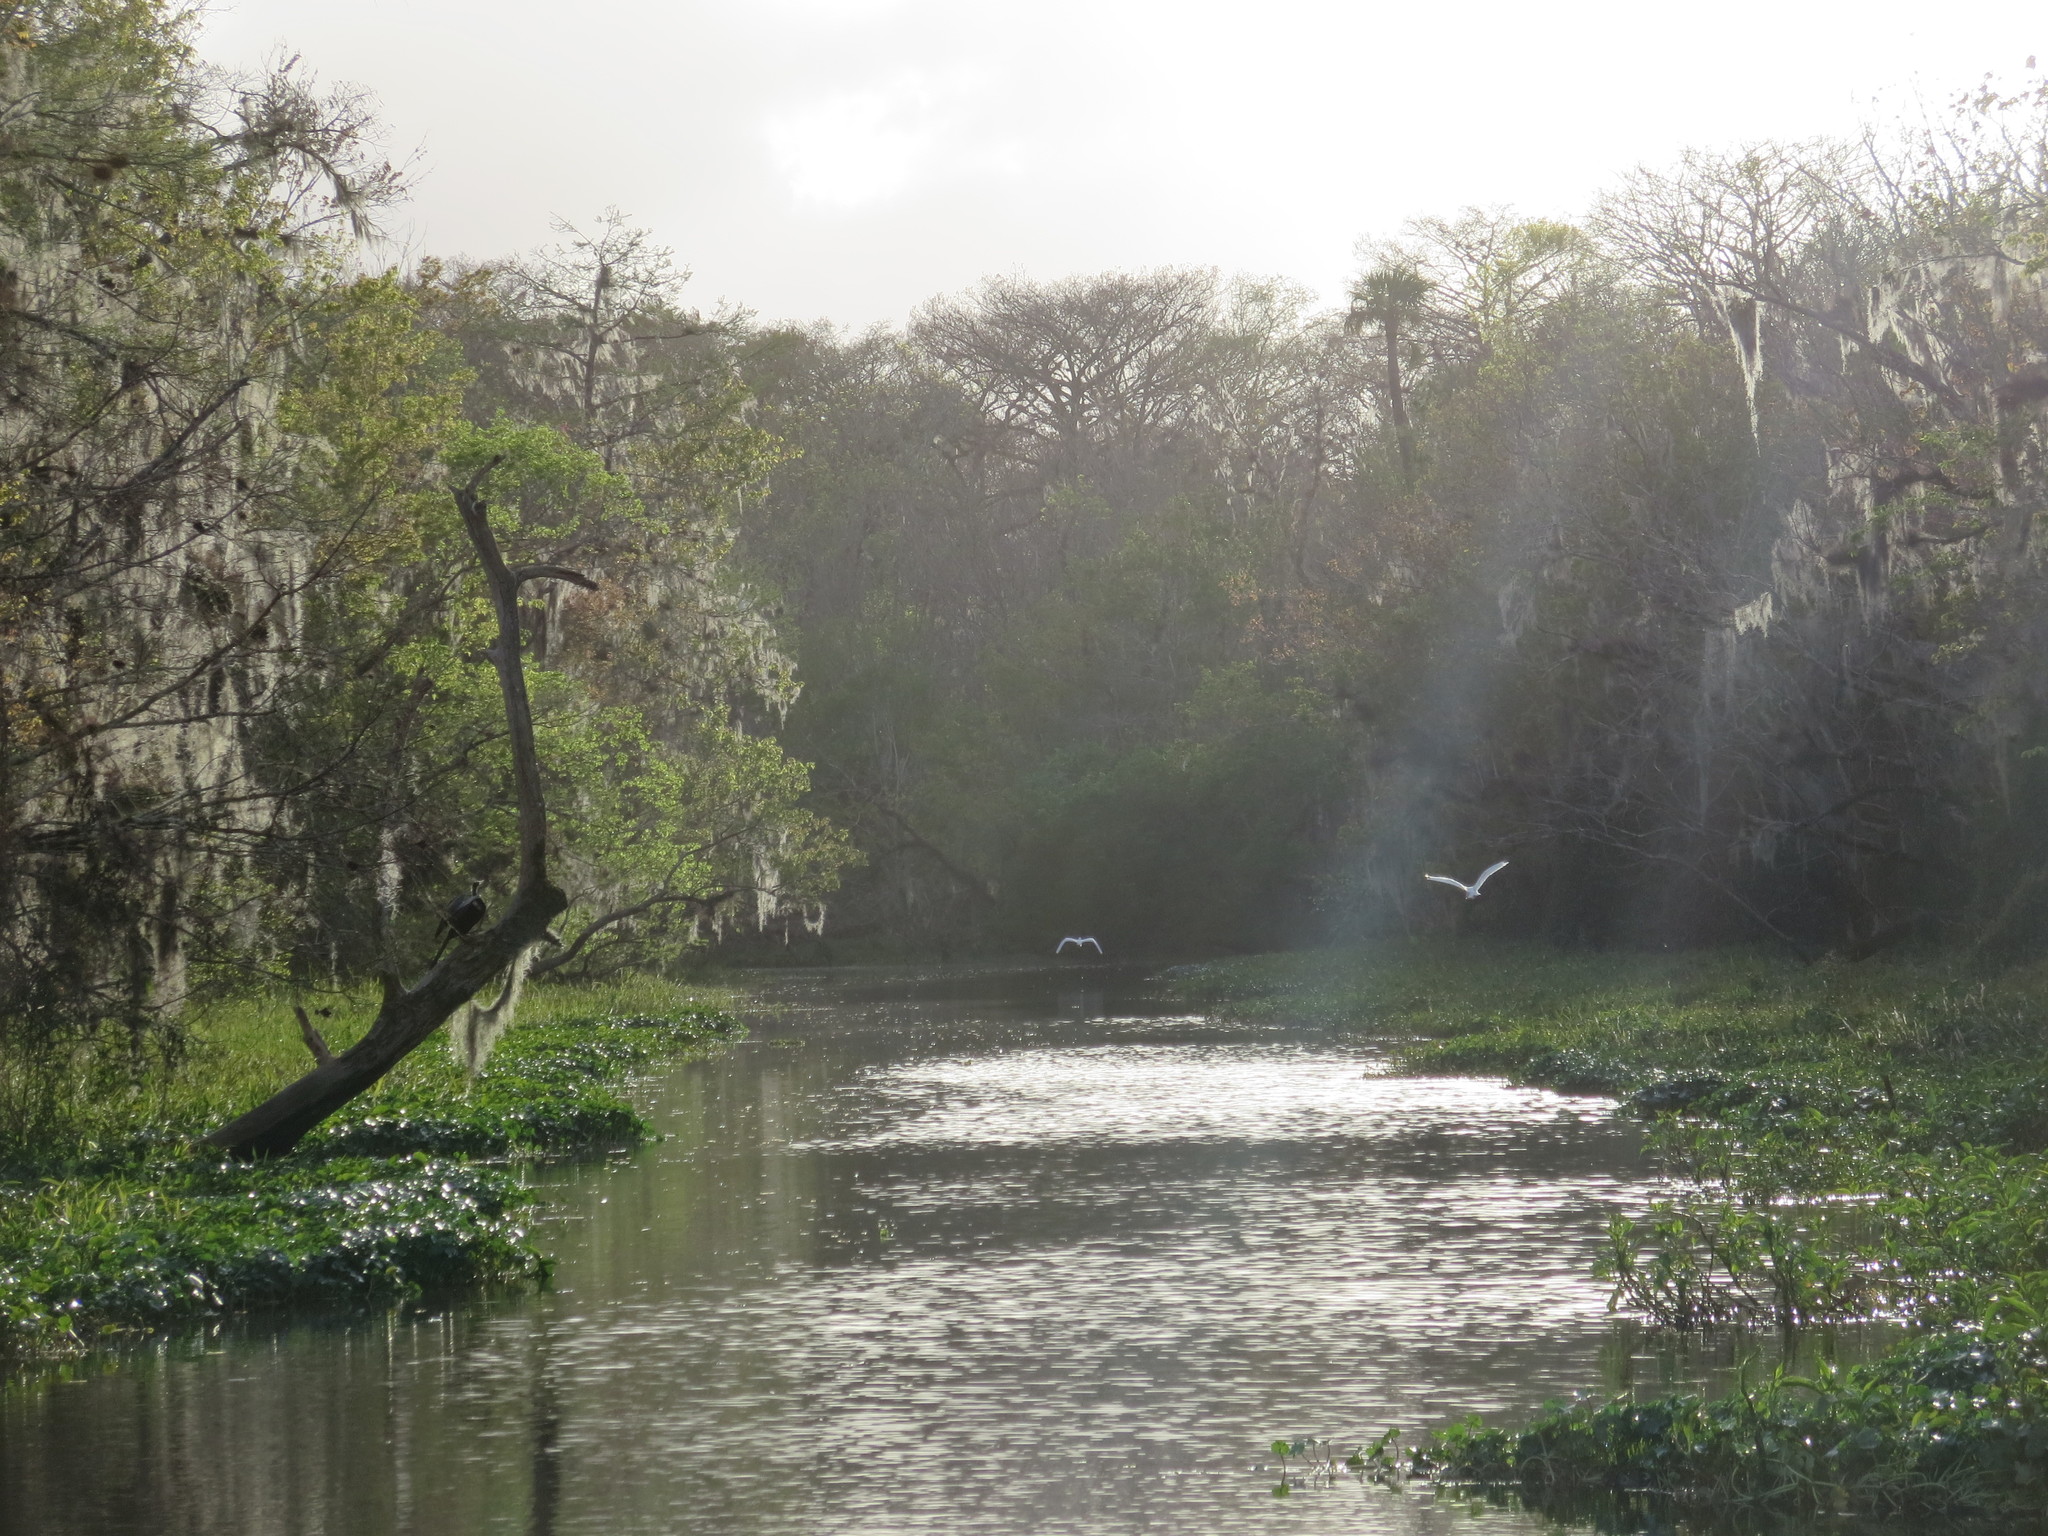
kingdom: Animalia
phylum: Chordata
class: Aves
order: Pelecaniformes
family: Ardeidae
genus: Ardea
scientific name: Ardea alba
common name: Great egret
